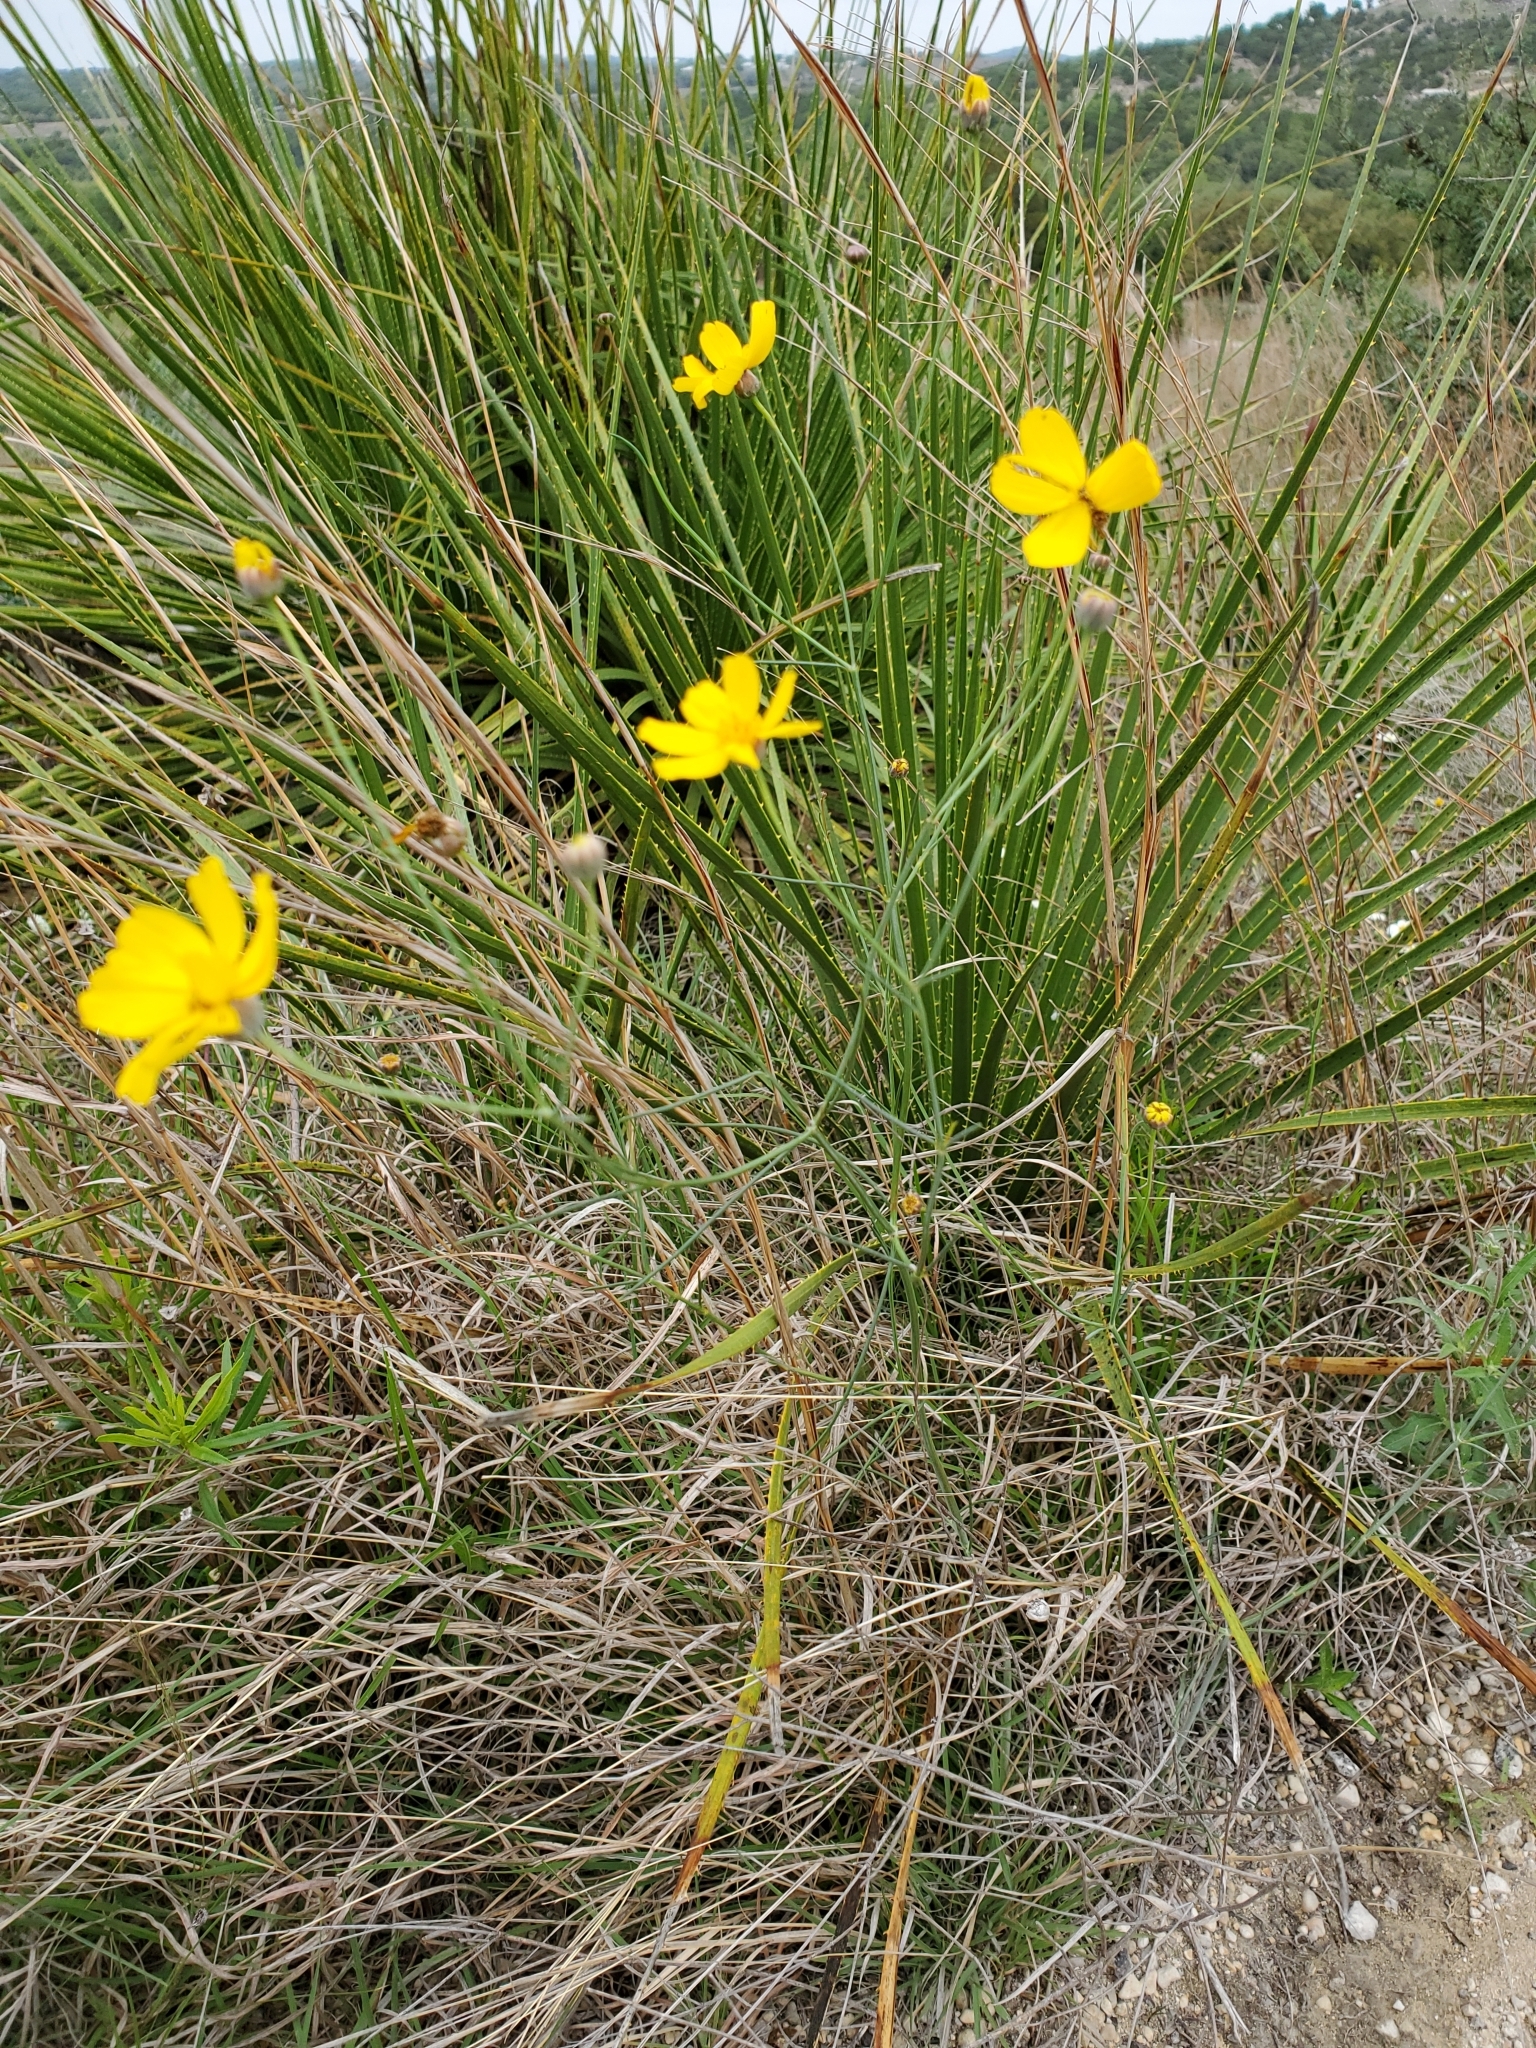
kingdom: Plantae
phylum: Tracheophyta
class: Magnoliopsida
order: Asterales
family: Asteraceae
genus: Thelesperma
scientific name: Thelesperma simplicifolium
